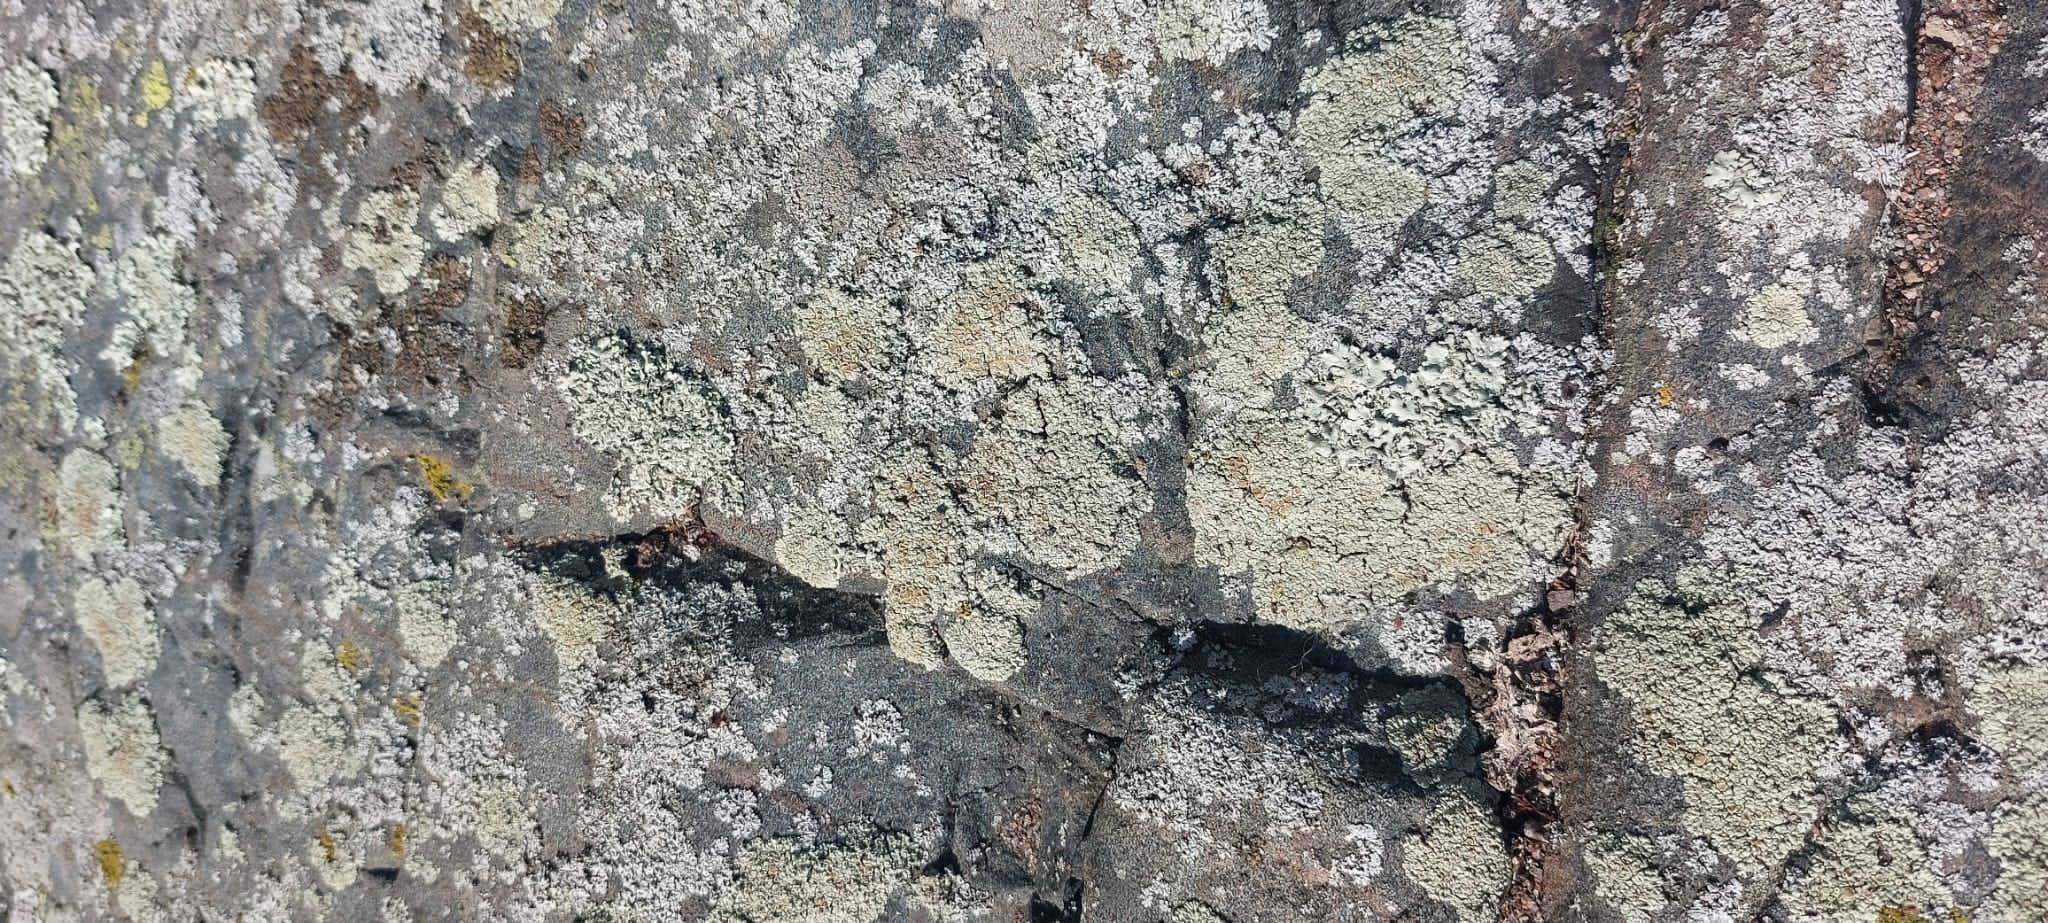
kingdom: Fungi
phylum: Ascomycota
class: Lecanoromycetes
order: Lecanorales
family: Lecanoraceae
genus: Protoparmeliopsis
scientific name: Protoparmeliopsis muralis
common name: Stonewall rim lichen
